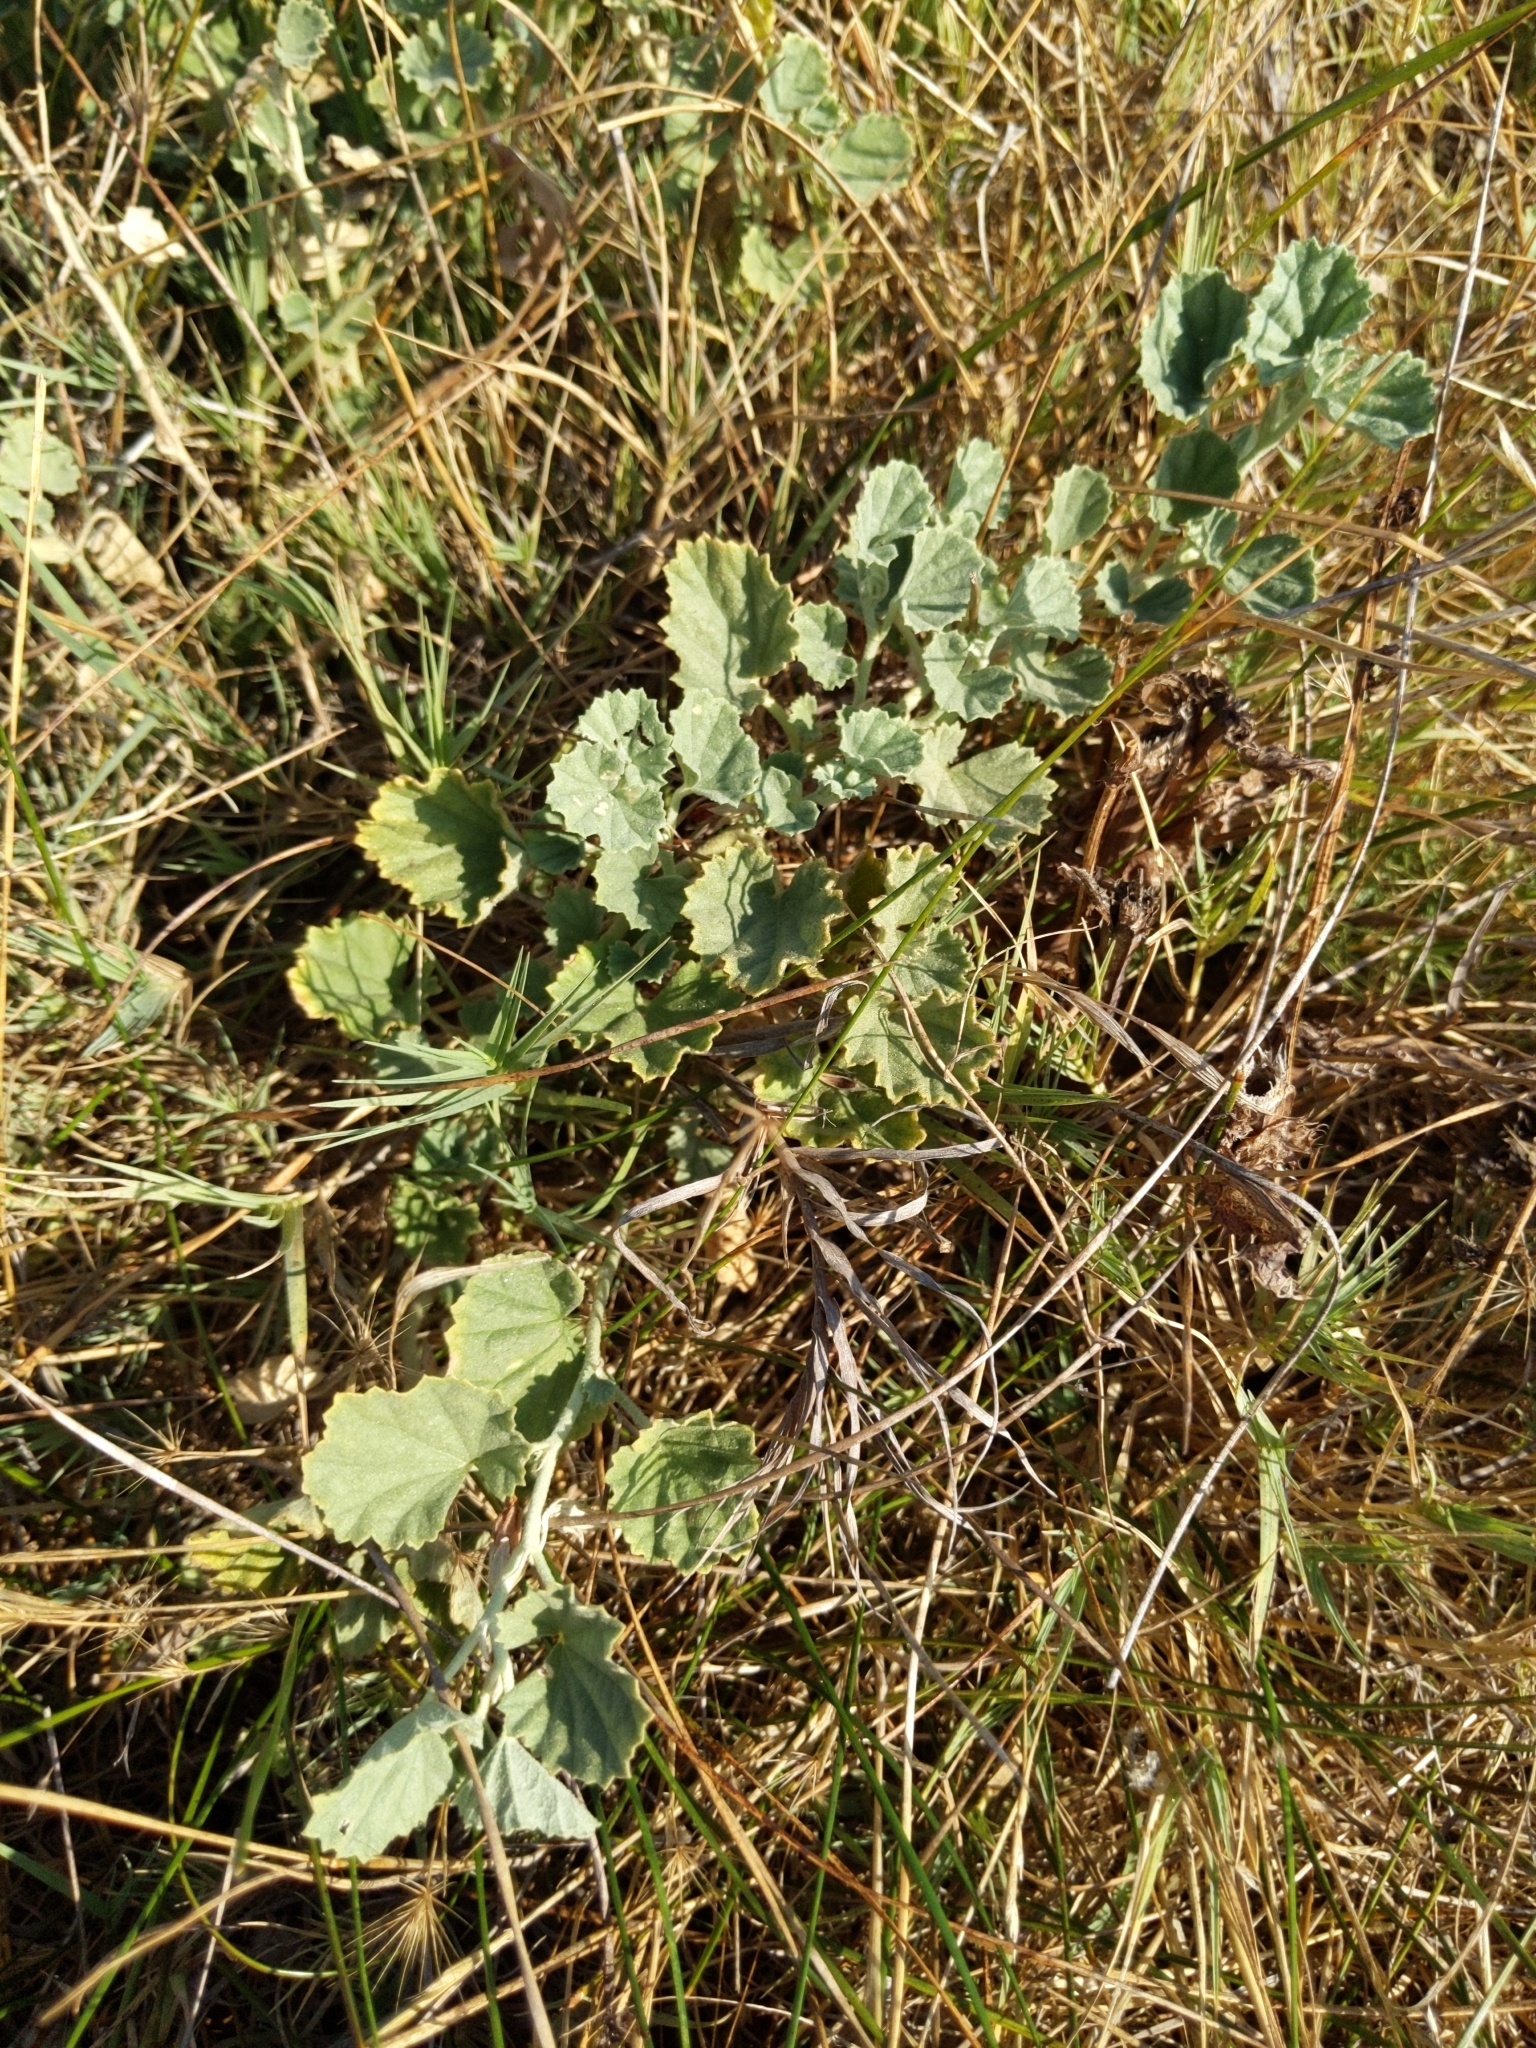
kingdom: Plantae
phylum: Tracheophyta
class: Magnoliopsida
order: Malvales
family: Malvaceae
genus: Malvella
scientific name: Malvella leprosa
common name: Alkali-mallow
